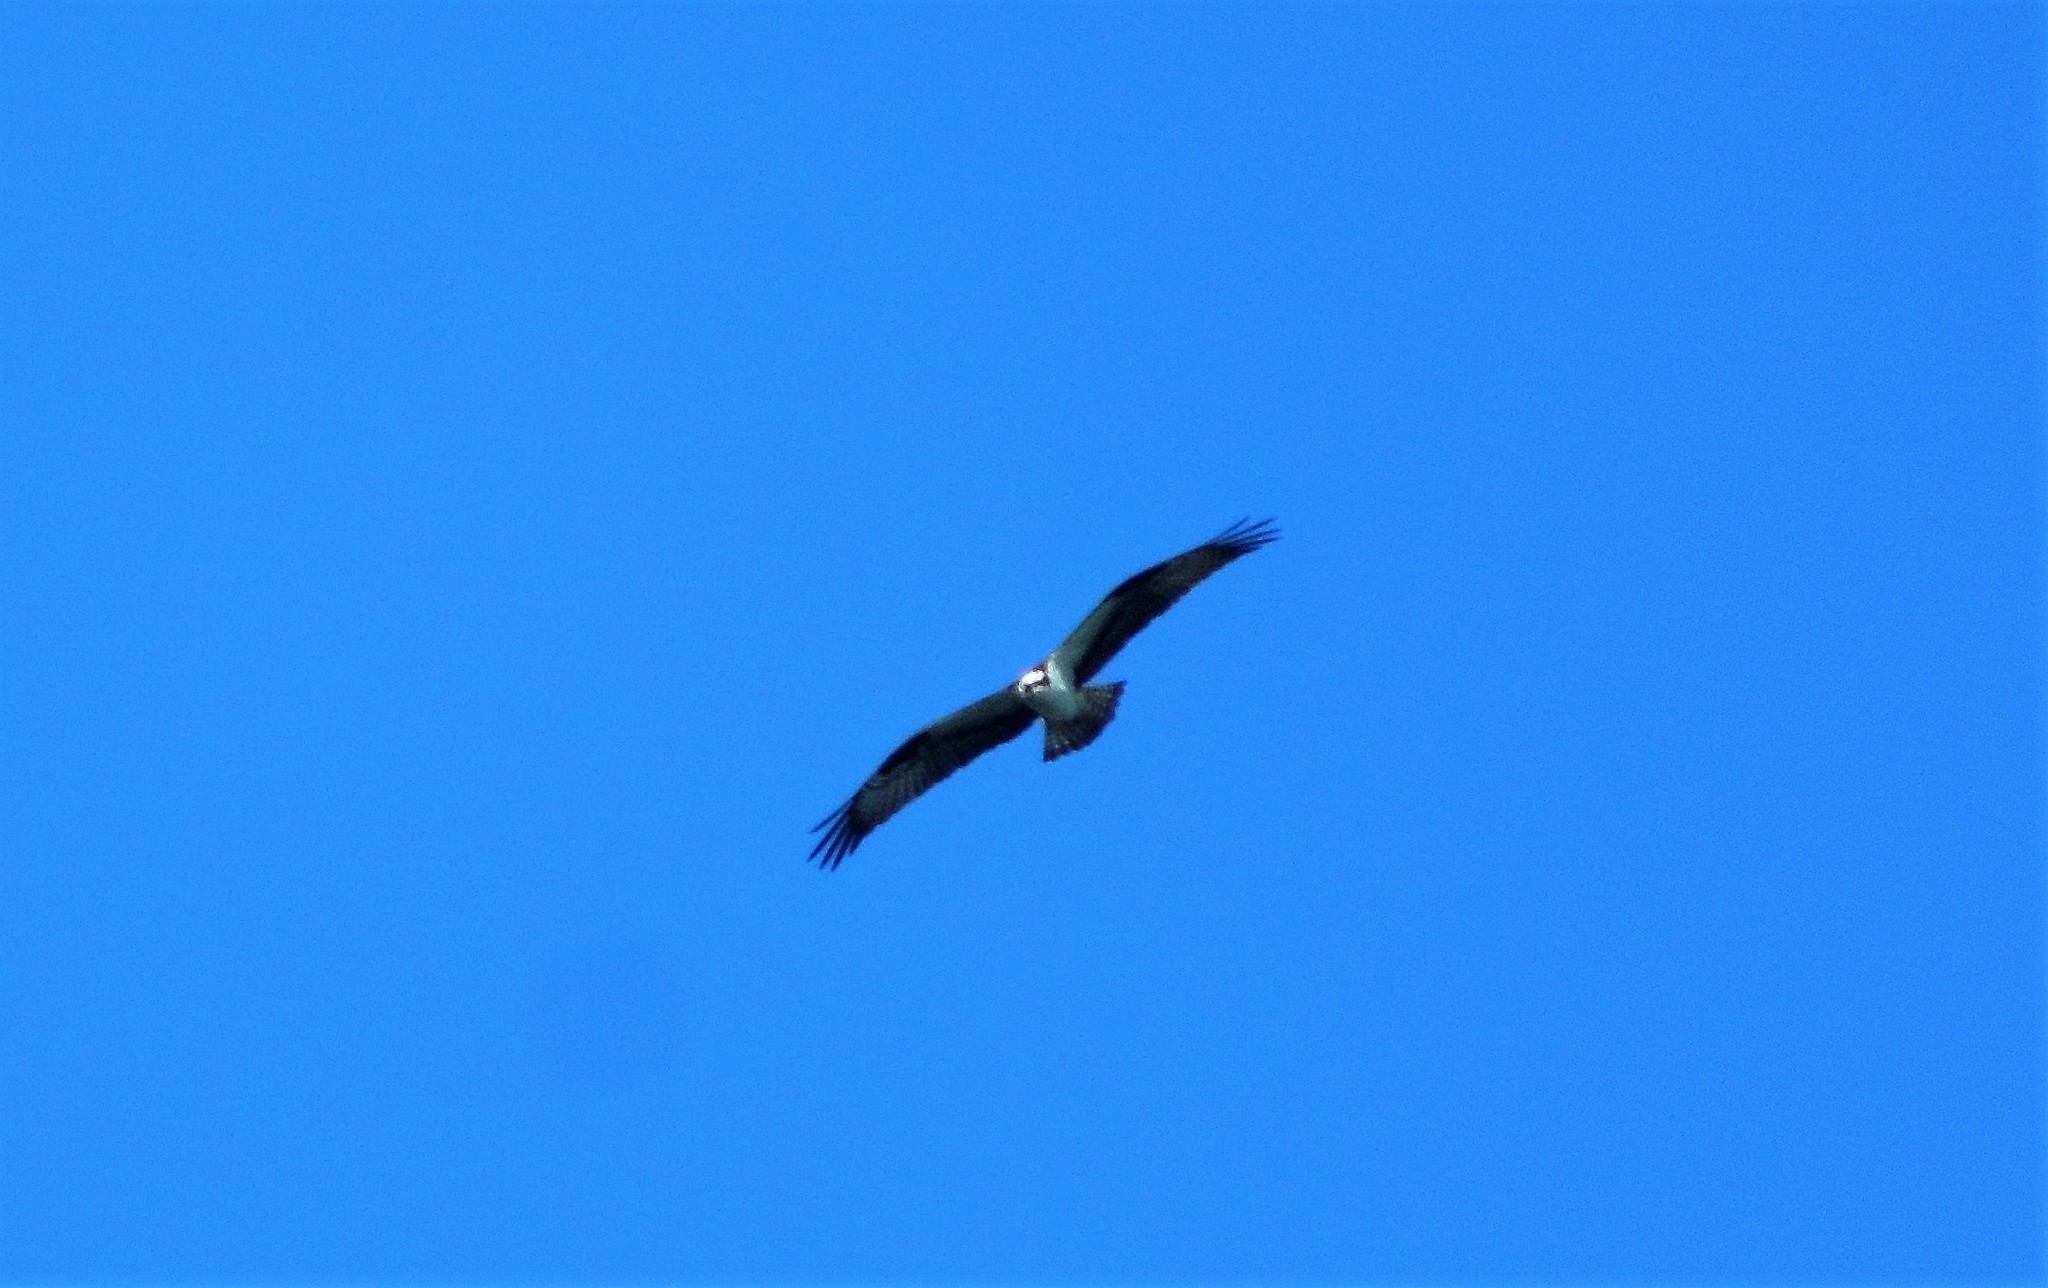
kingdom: Animalia
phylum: Chordata
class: Aves
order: Accipitriformes
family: Pandionidae
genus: Pandion
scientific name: Pandion haliaetus
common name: Osprey
